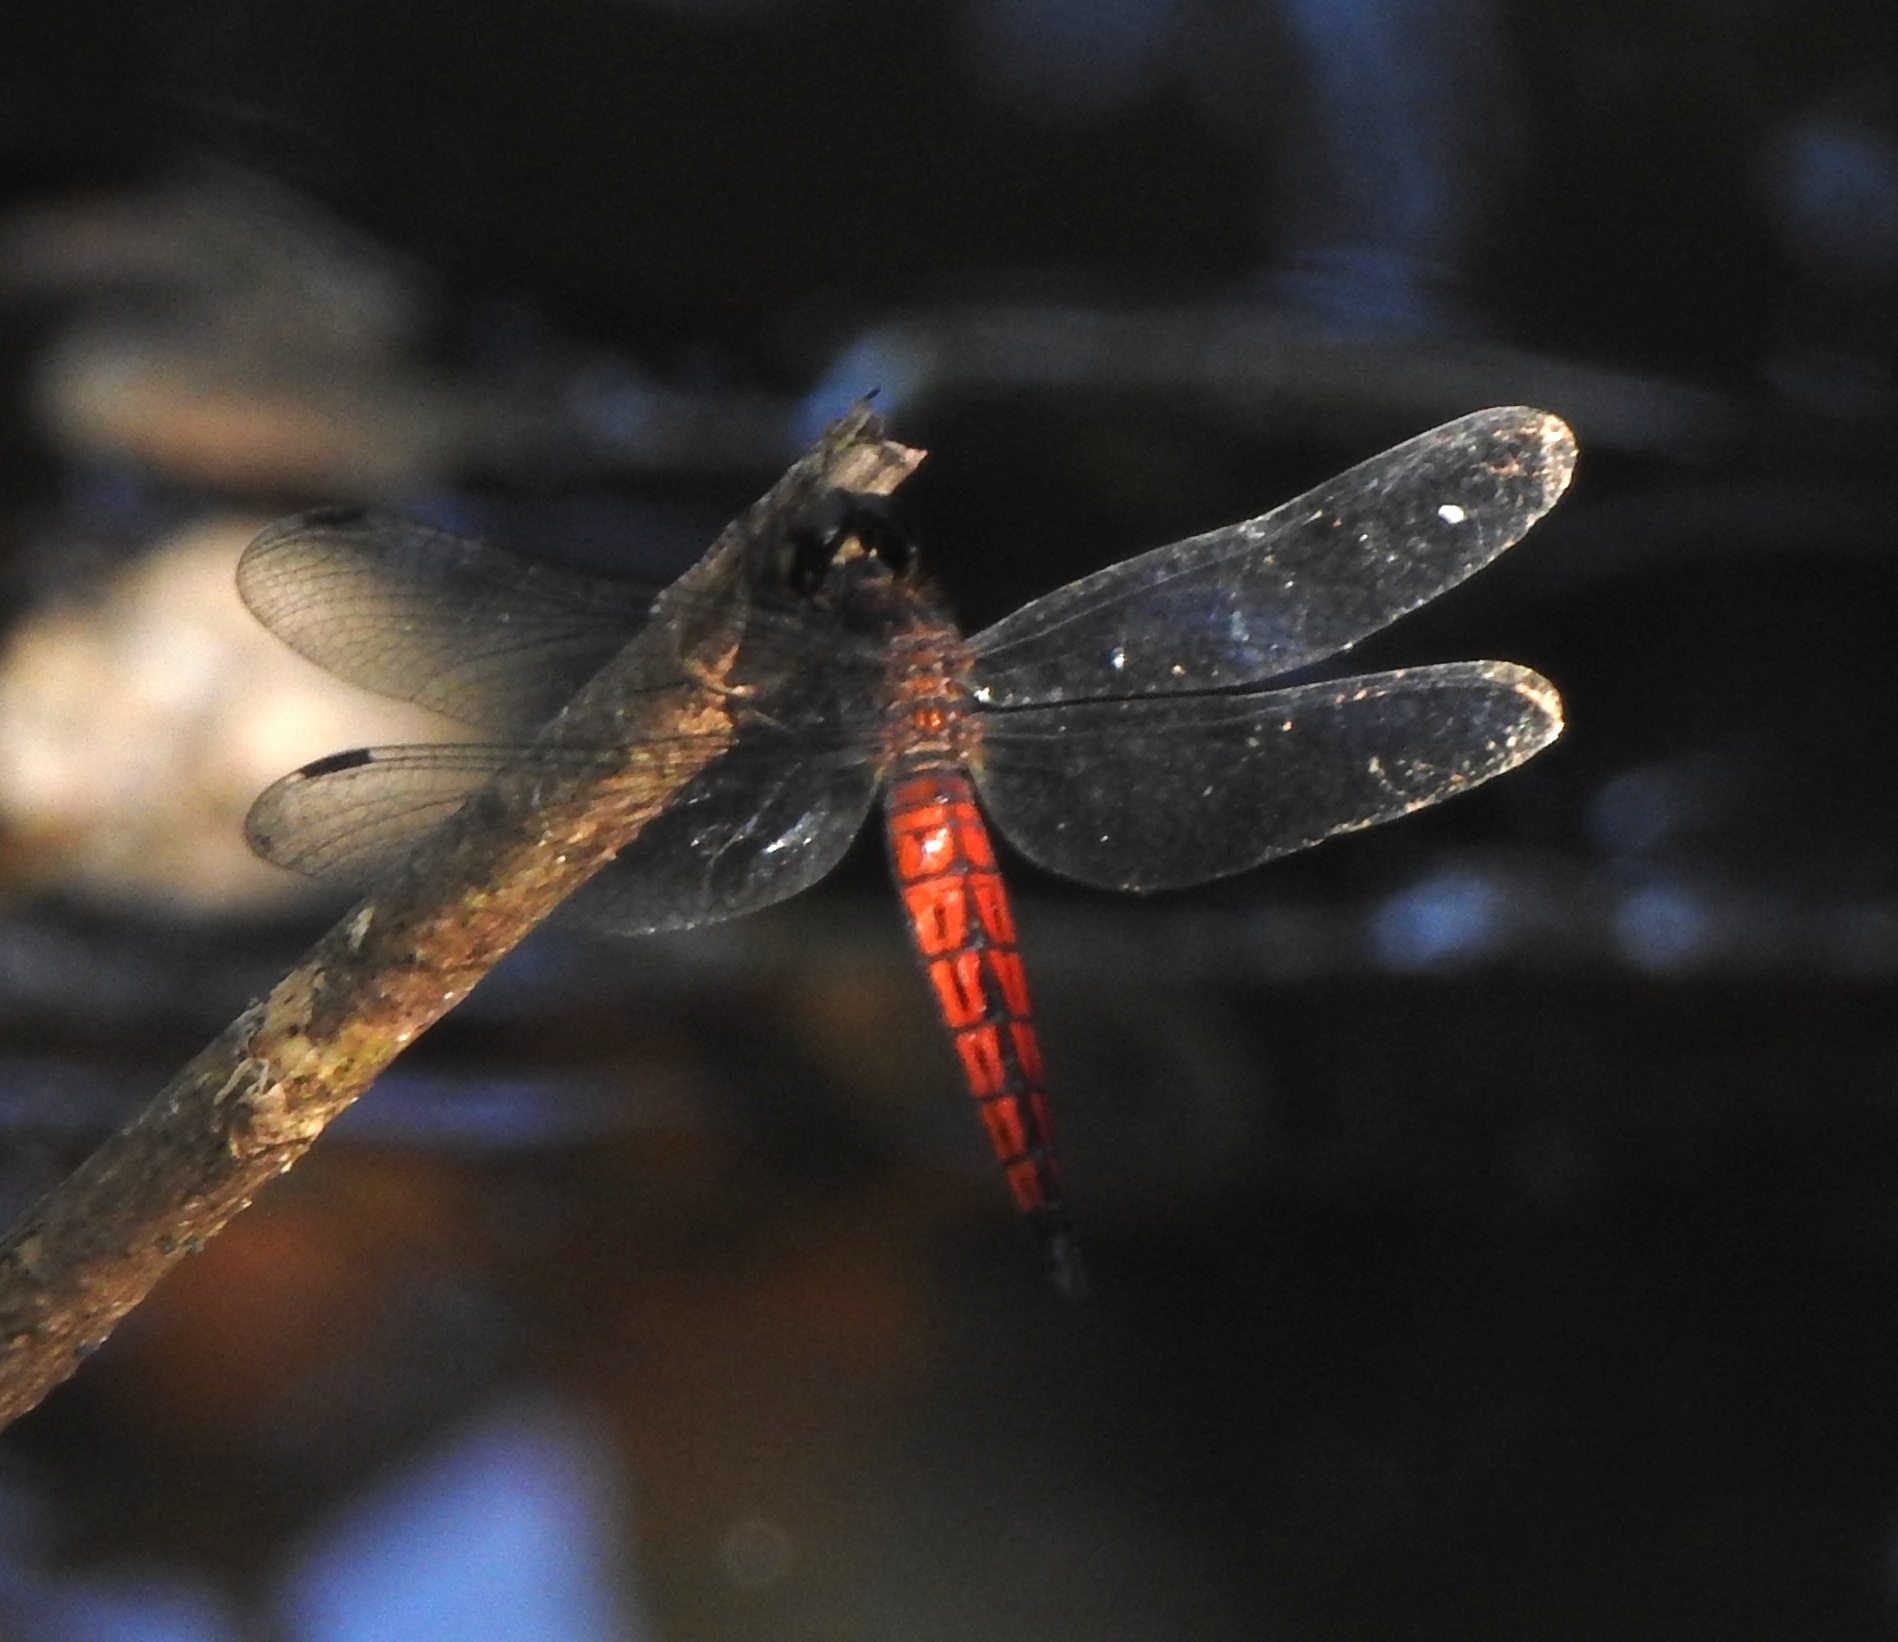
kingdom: Animalia
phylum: Arthropoda
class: Insecta
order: Odonata
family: Libellulidae
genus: Lyriothemis
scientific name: Lyriothemis acigastra
